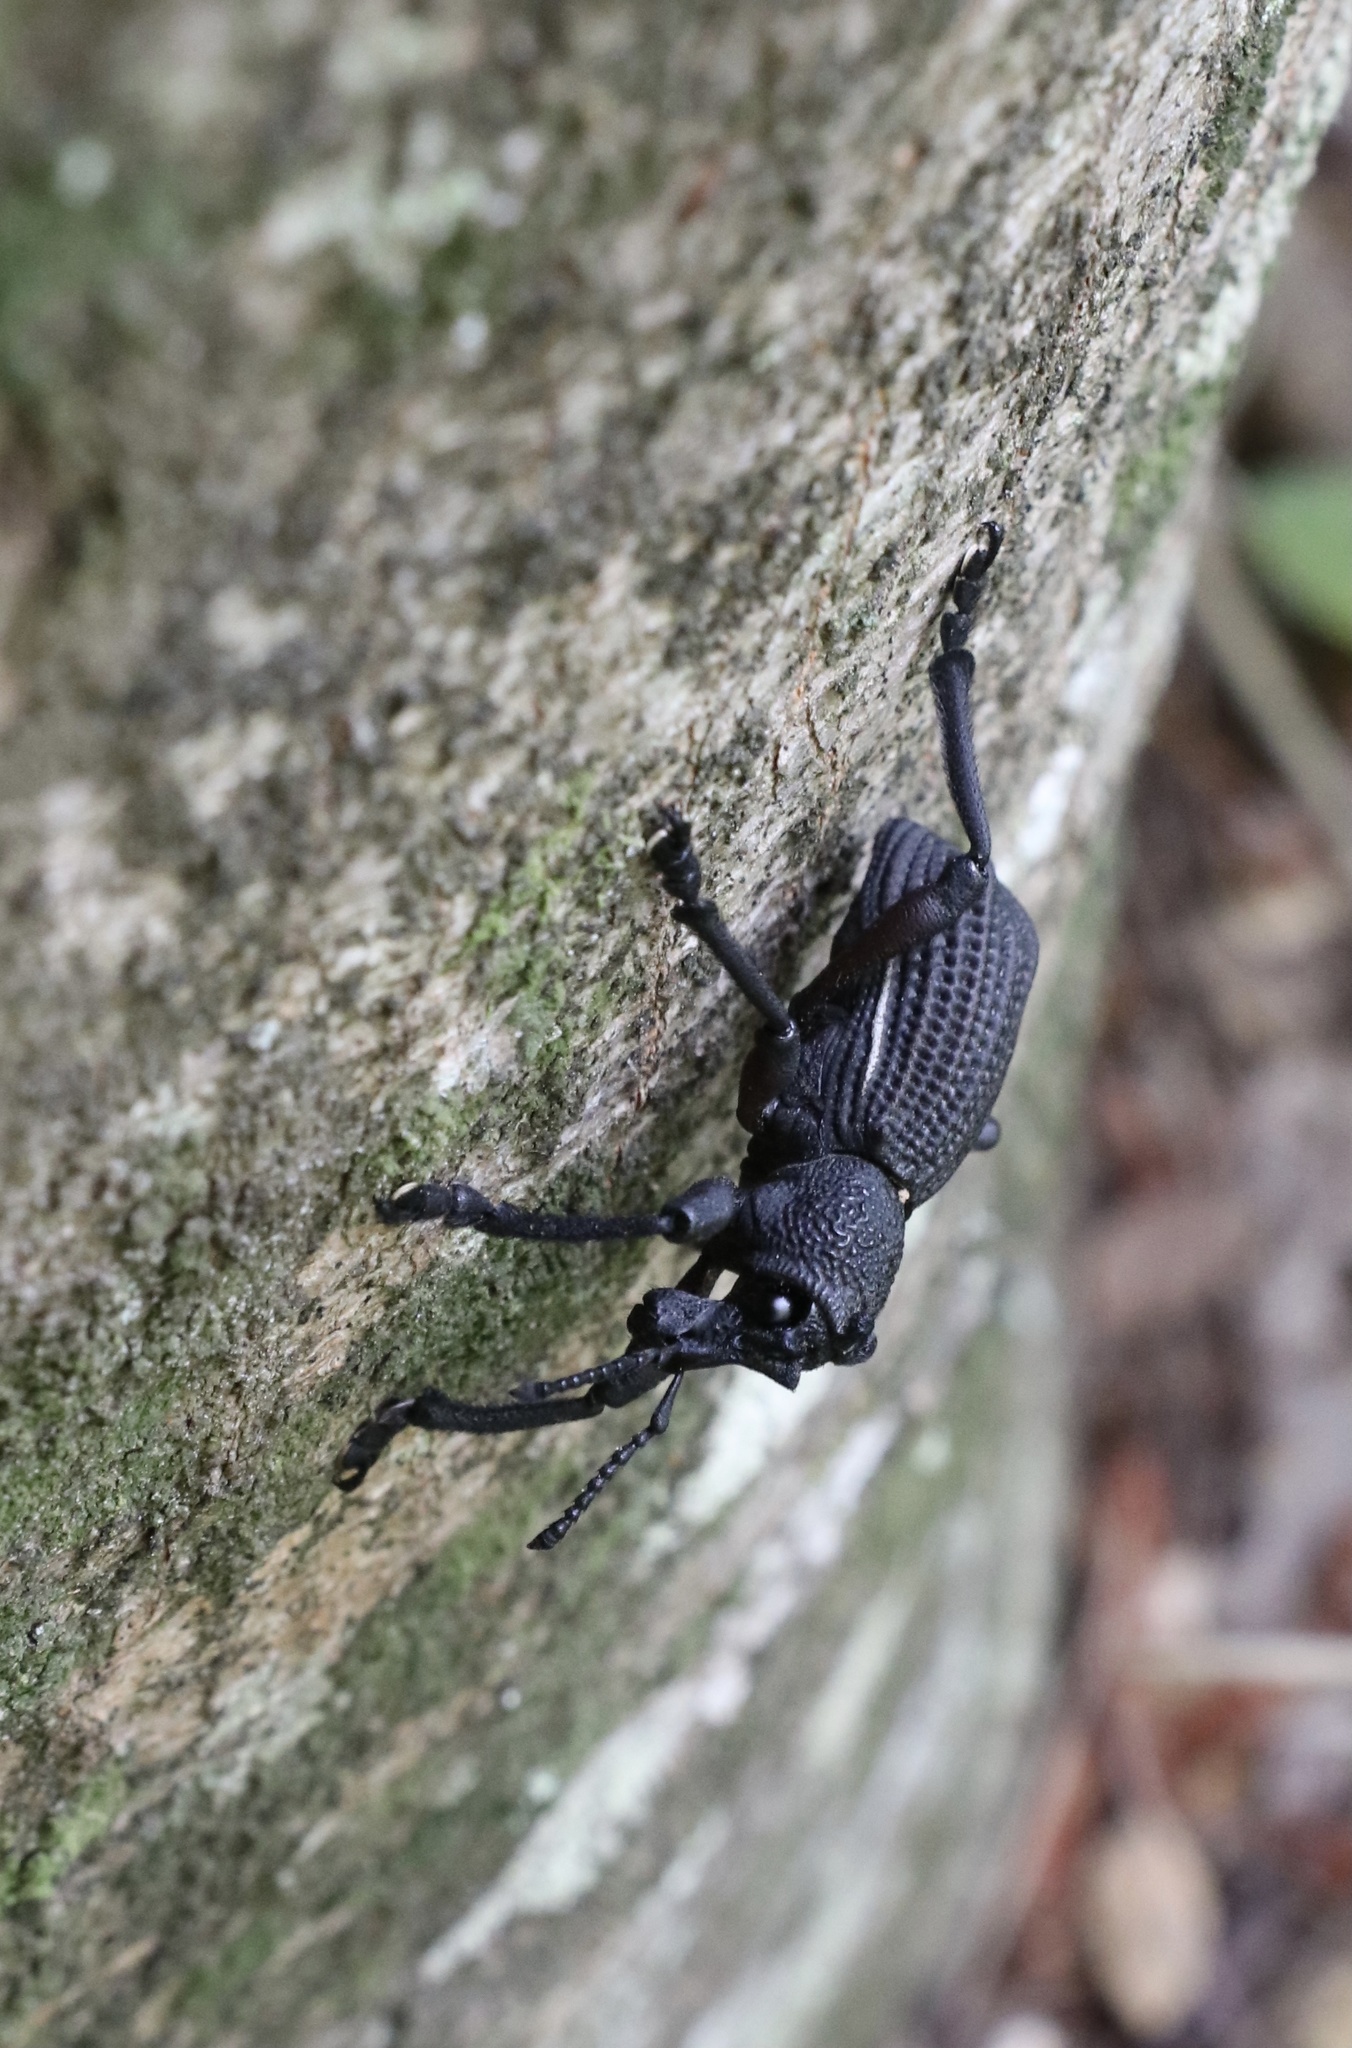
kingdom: Animalia
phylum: Arthropoda
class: Insecta
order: Coleoptera
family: Curculionidae
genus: Aegorhinus
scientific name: Aegorhinus
